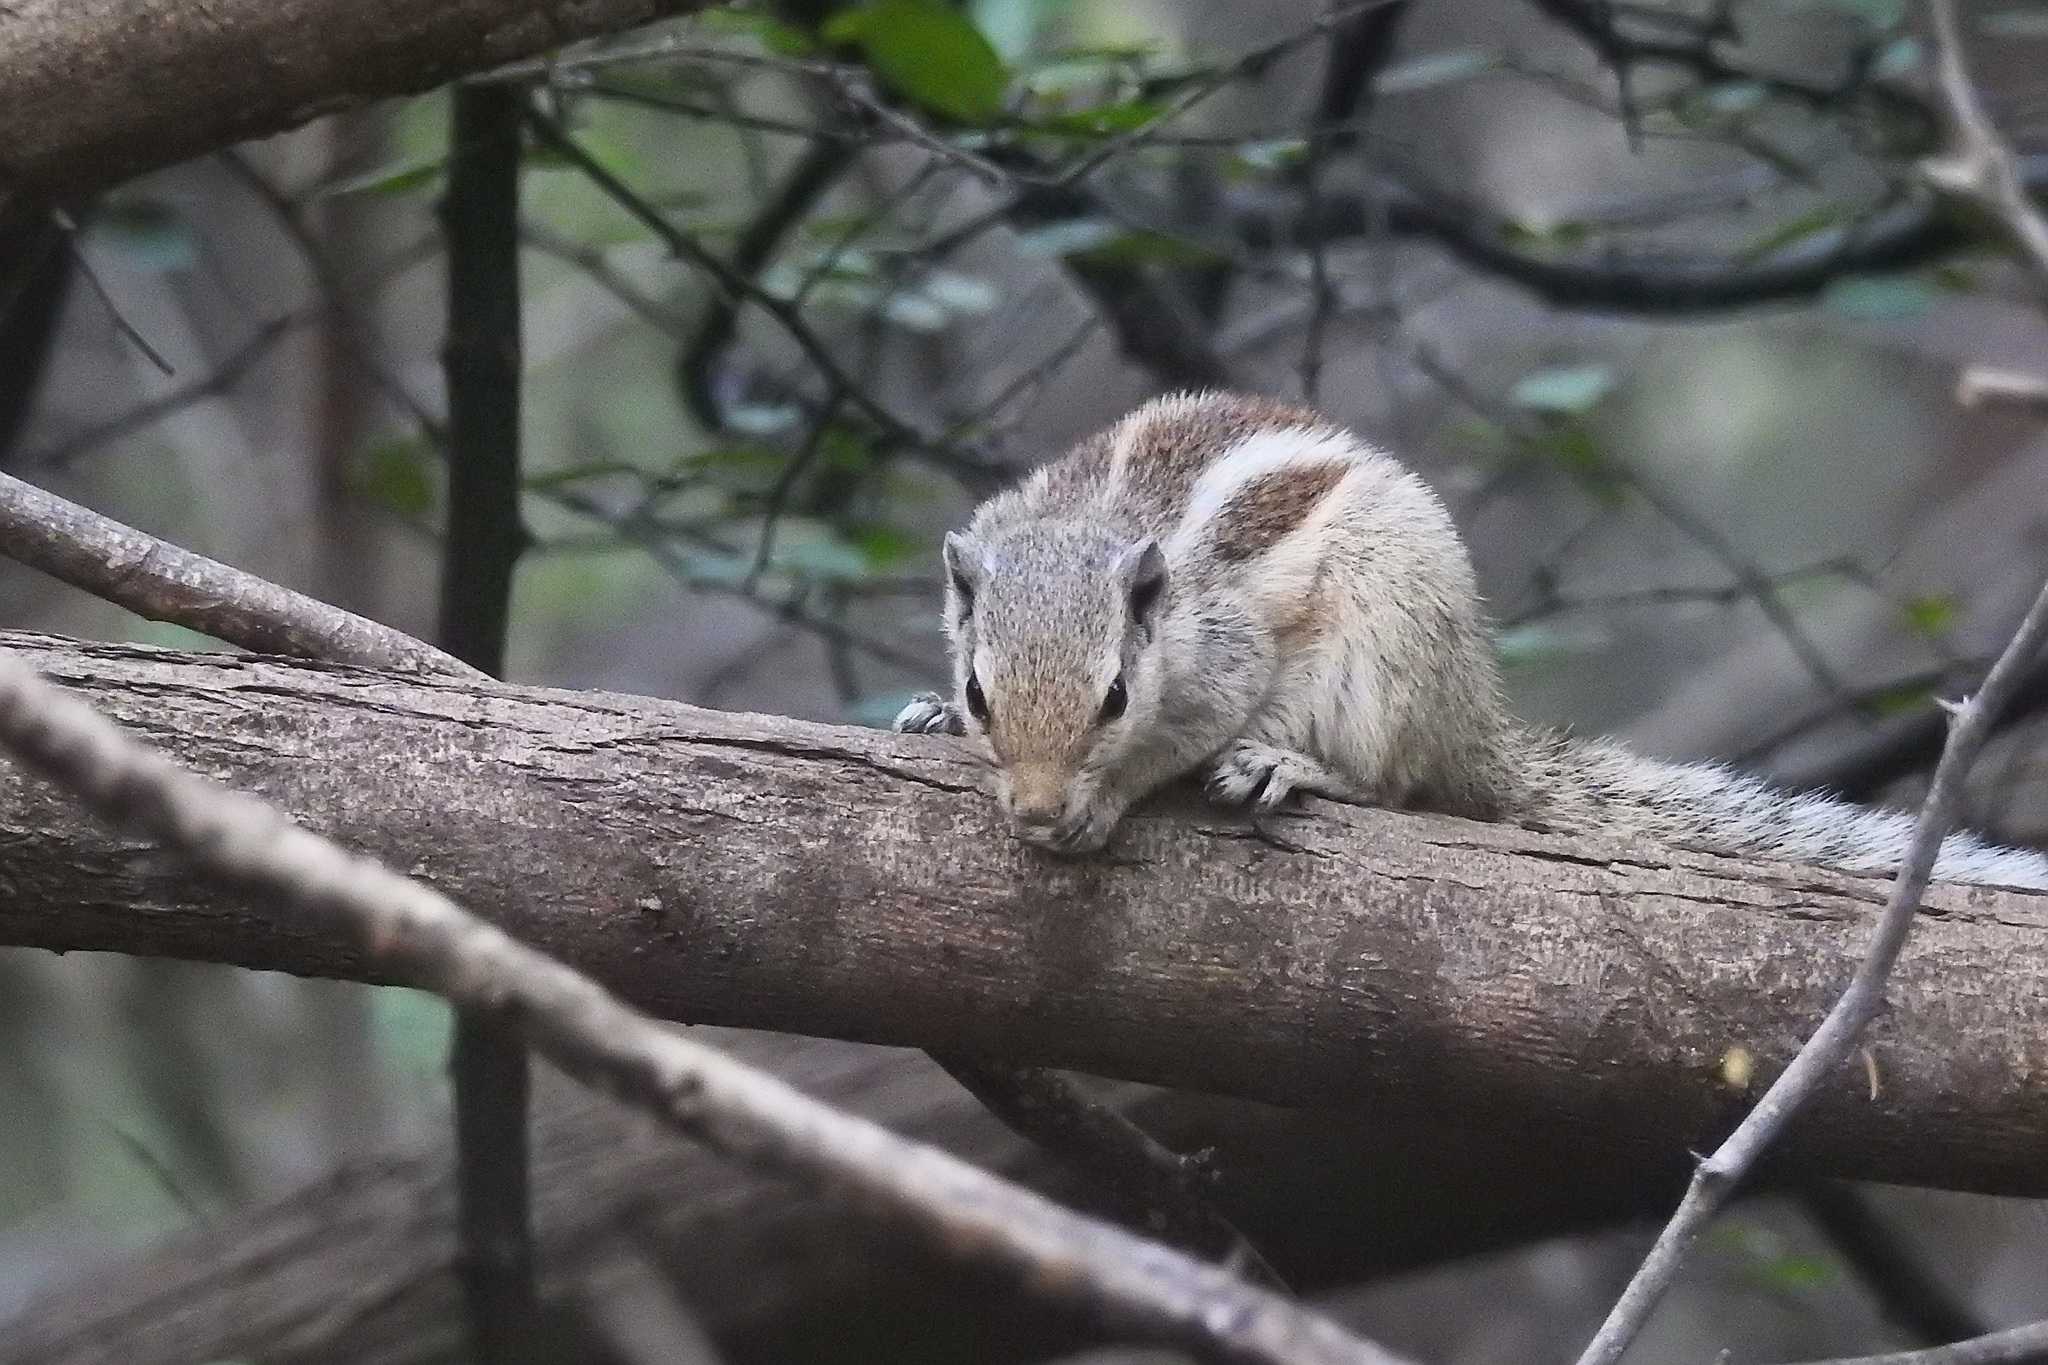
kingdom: Animalia
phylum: Chordata
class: Mammalia
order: Rodentia
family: Sciuridae
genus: Funambulus
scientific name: Funambulus pennantii
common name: Northern palm squirrel
